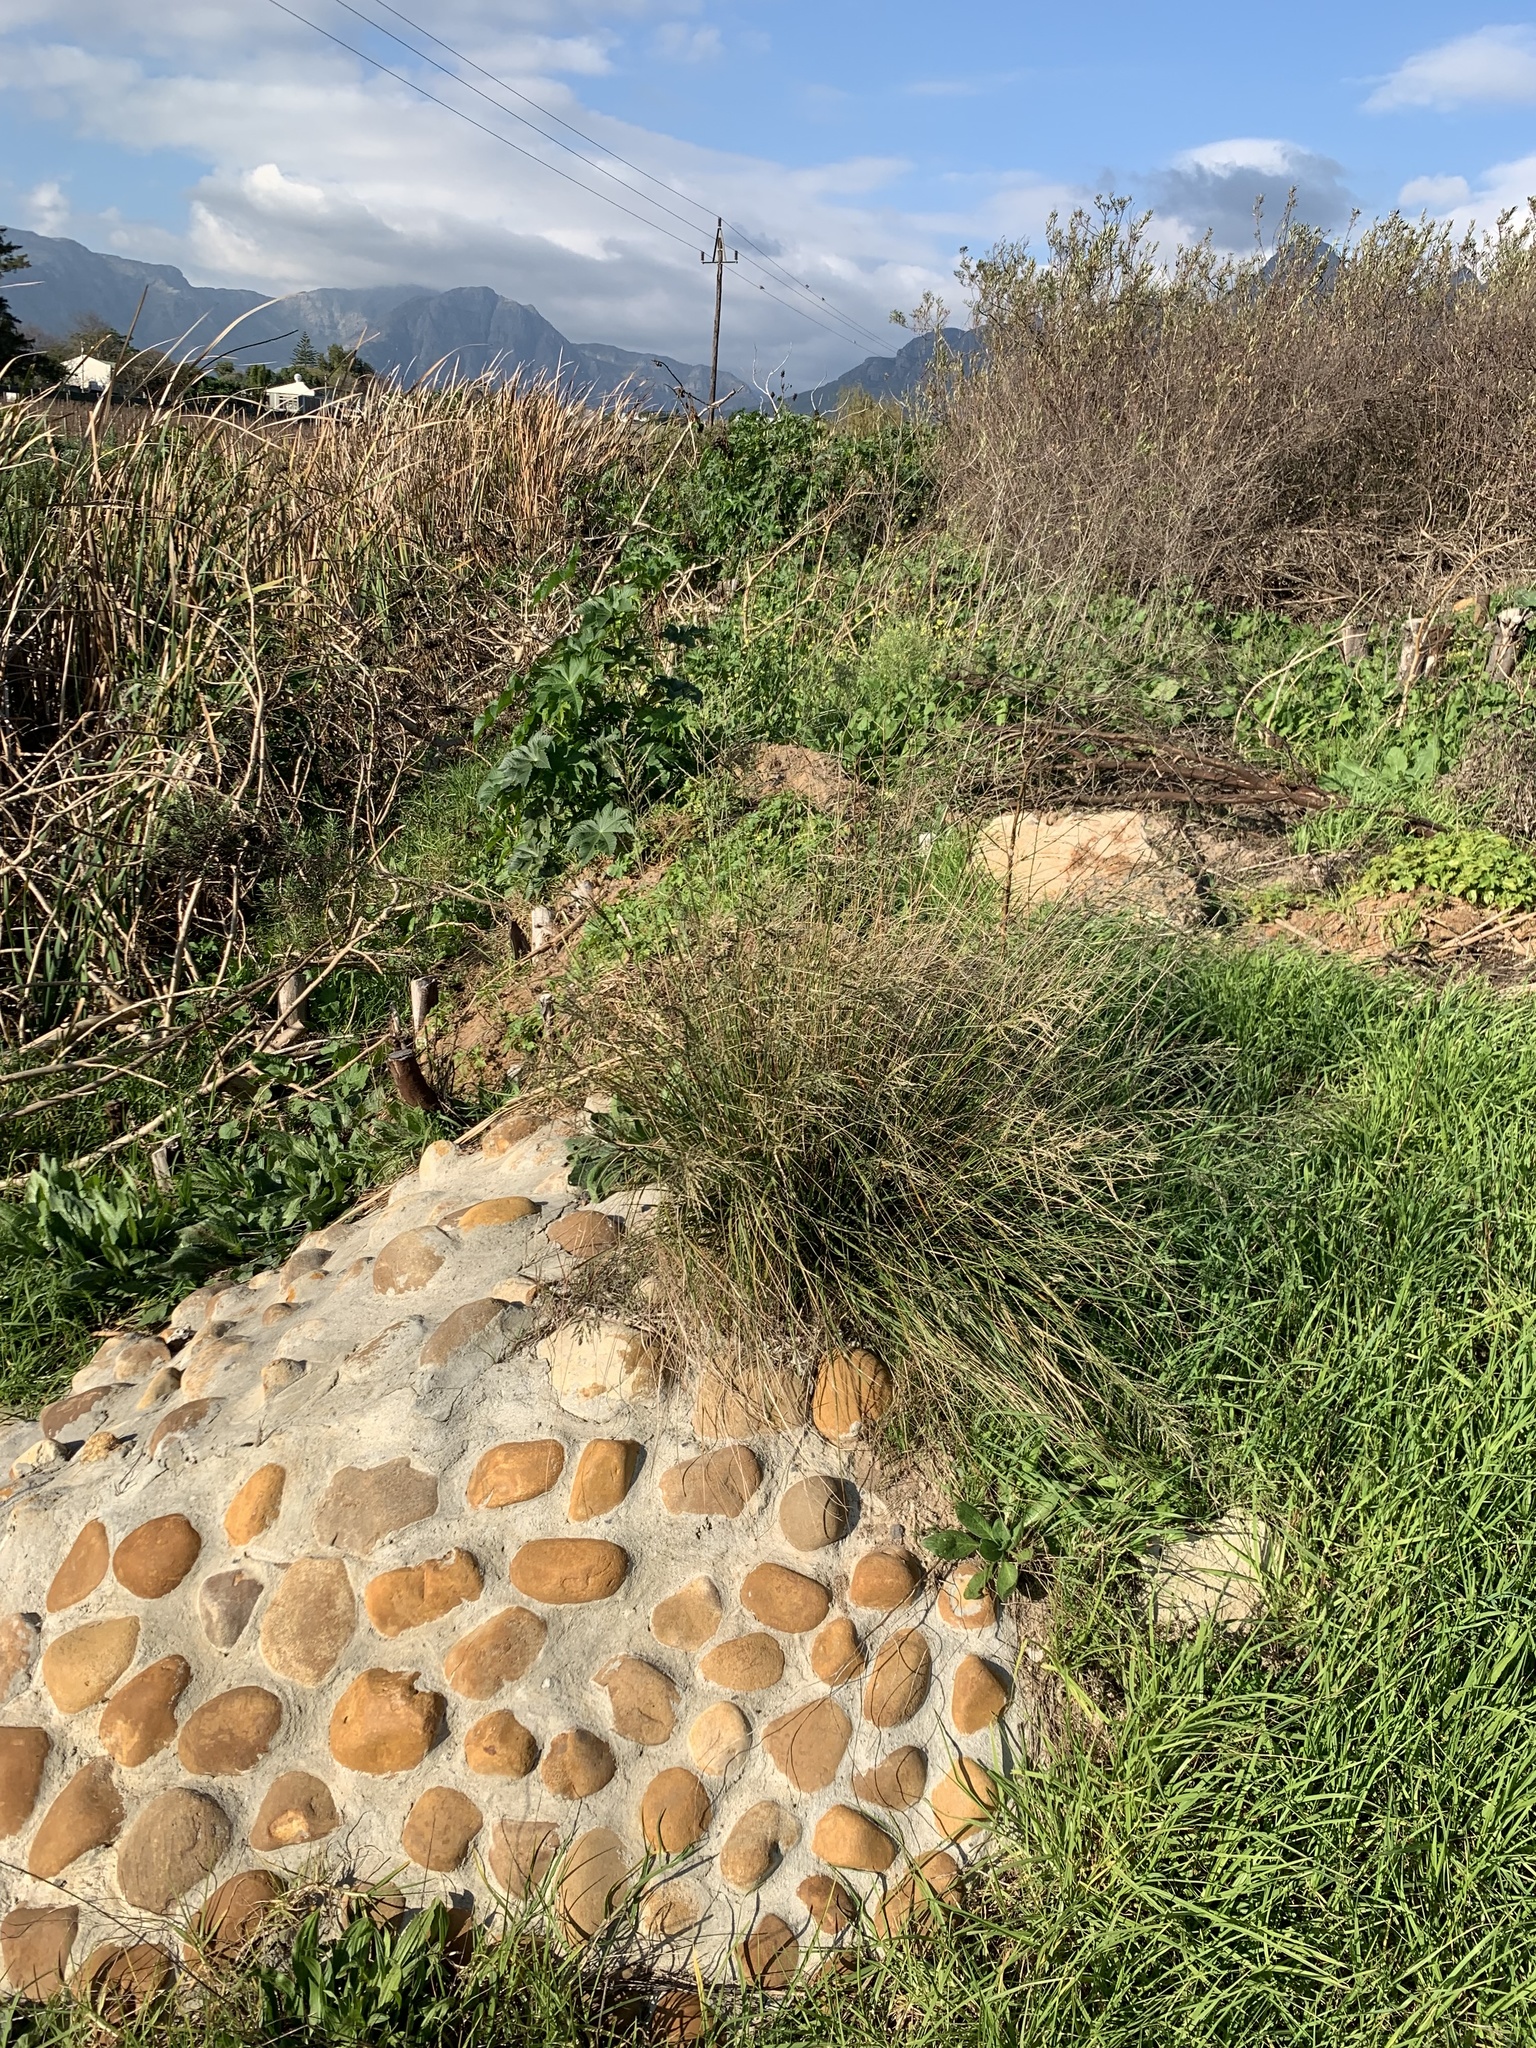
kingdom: Plantae
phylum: Tracheophyta
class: Liliopsida
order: Poales
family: Poaceae
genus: Eragrostis
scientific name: Eragrostis curvula
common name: African love-grass
